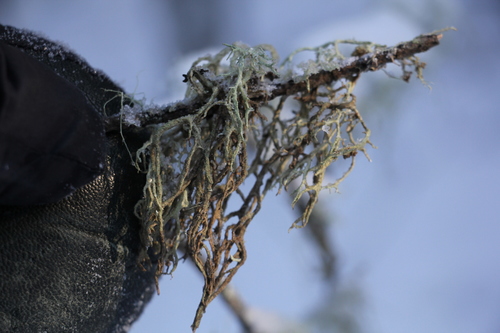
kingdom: Fungi
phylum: Ascomycota
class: Lecanoromycetes
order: Lecanorales
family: Parmeliaceae
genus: Evernia
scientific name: Evernia mesomorpha
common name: Boreal oak moss lichen
